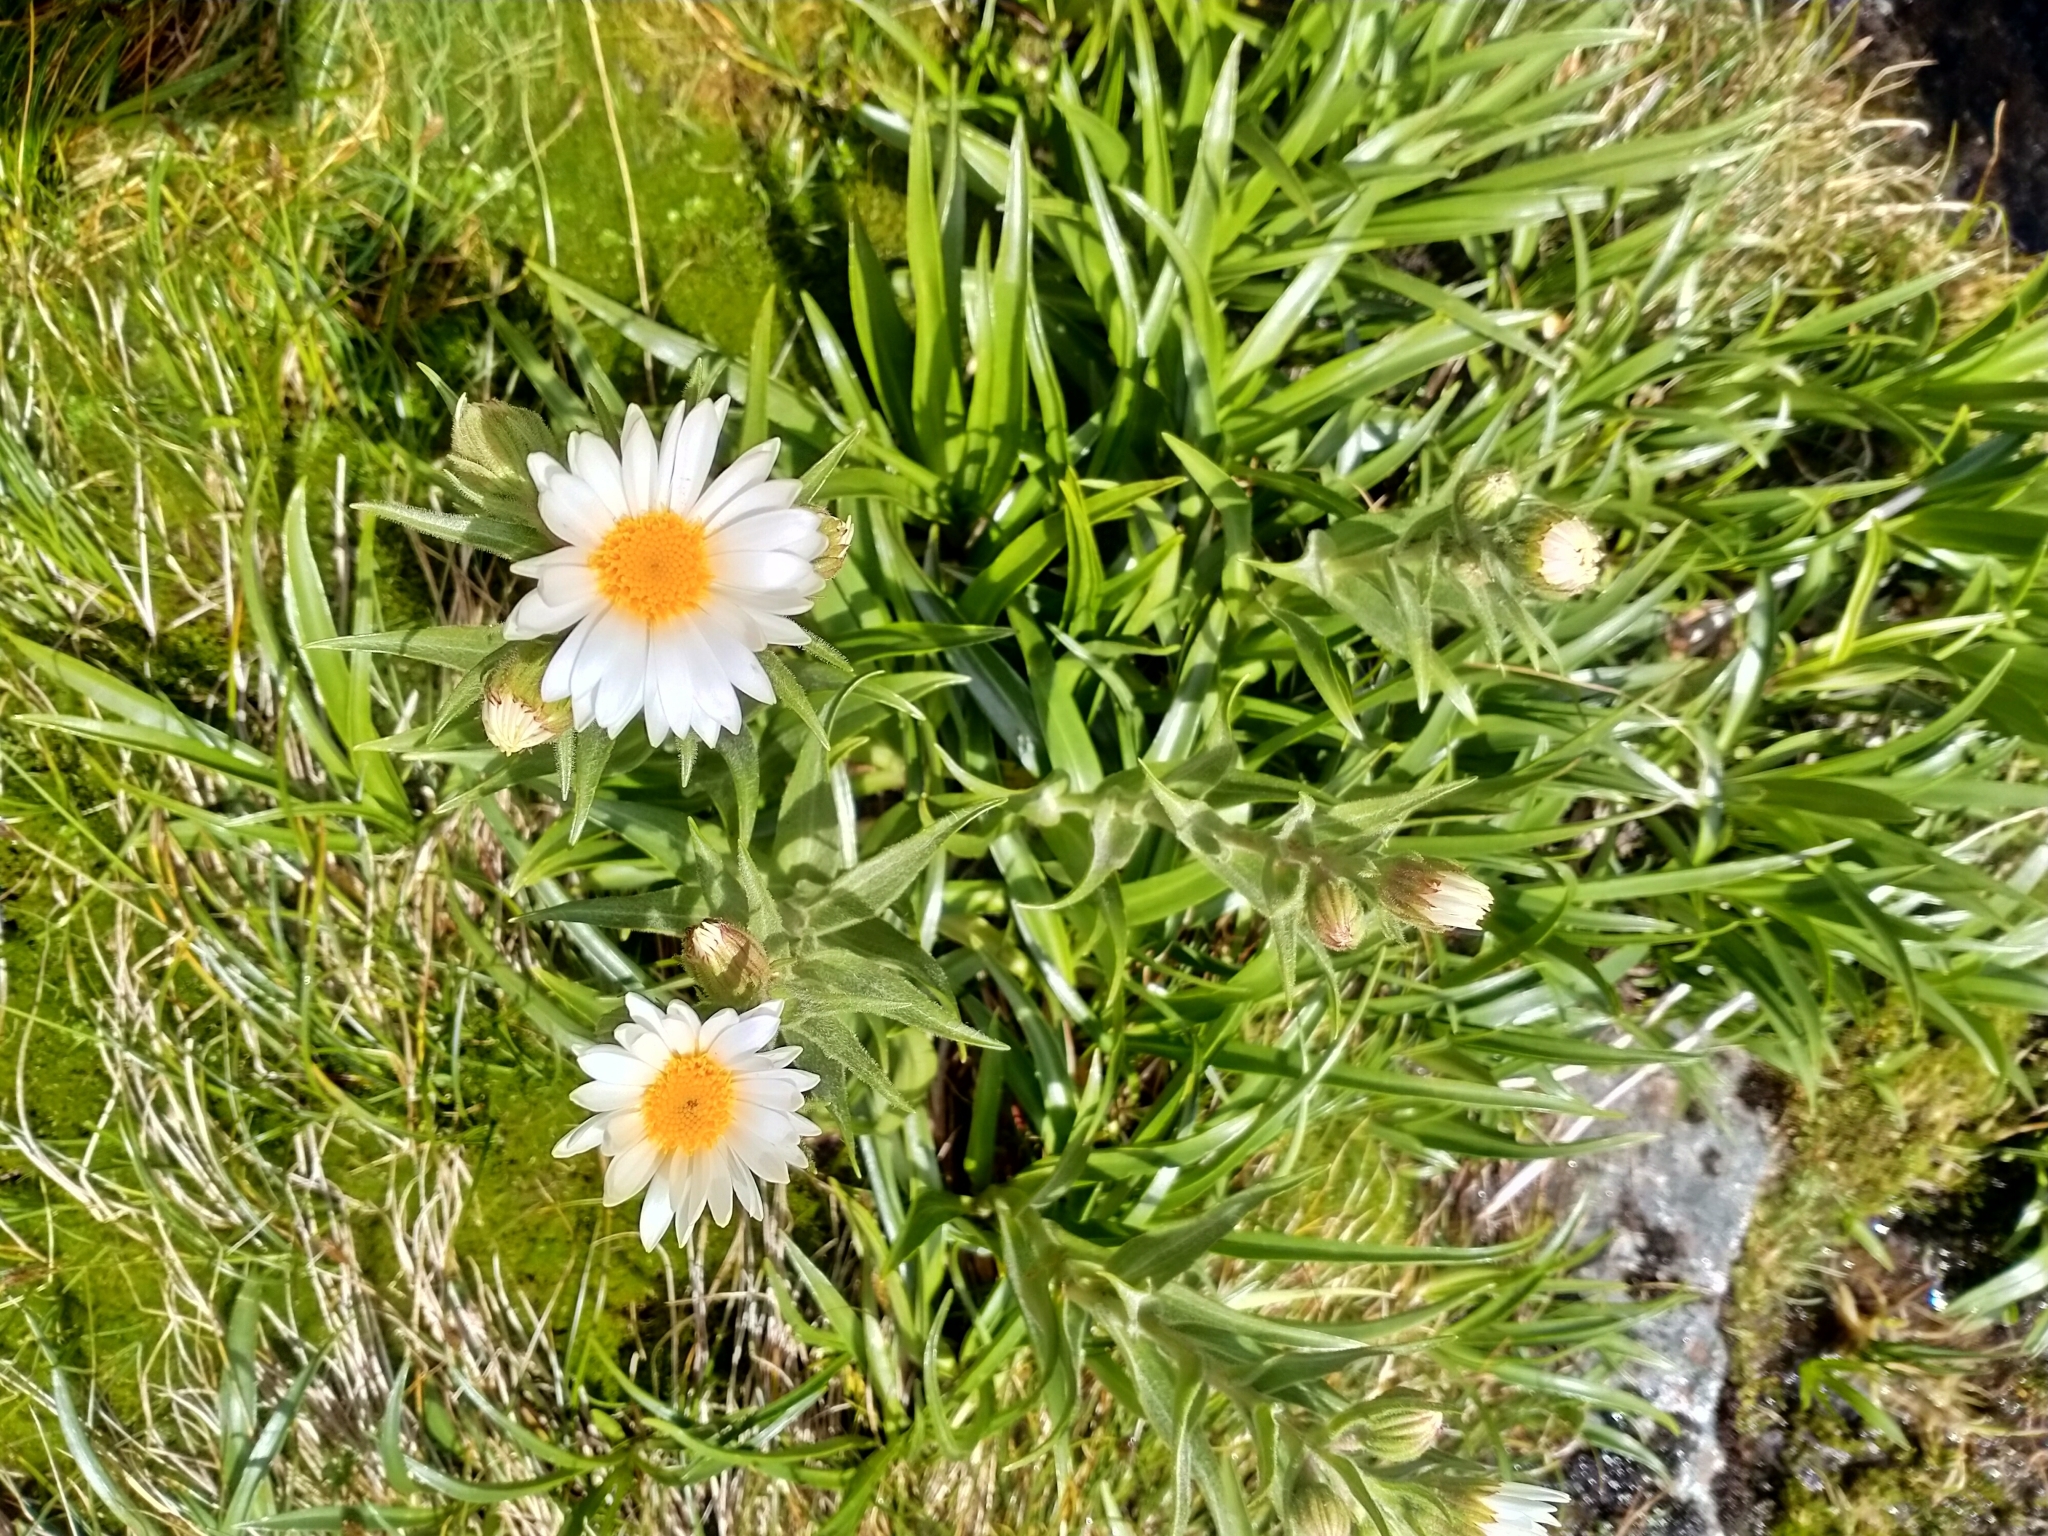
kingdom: Plantae
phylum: Tracheophyta
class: Magnoliopsida
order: Asterales
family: Asteraceae
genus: Dolichoglottis
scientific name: Dolichoglottis scorzoneroides
